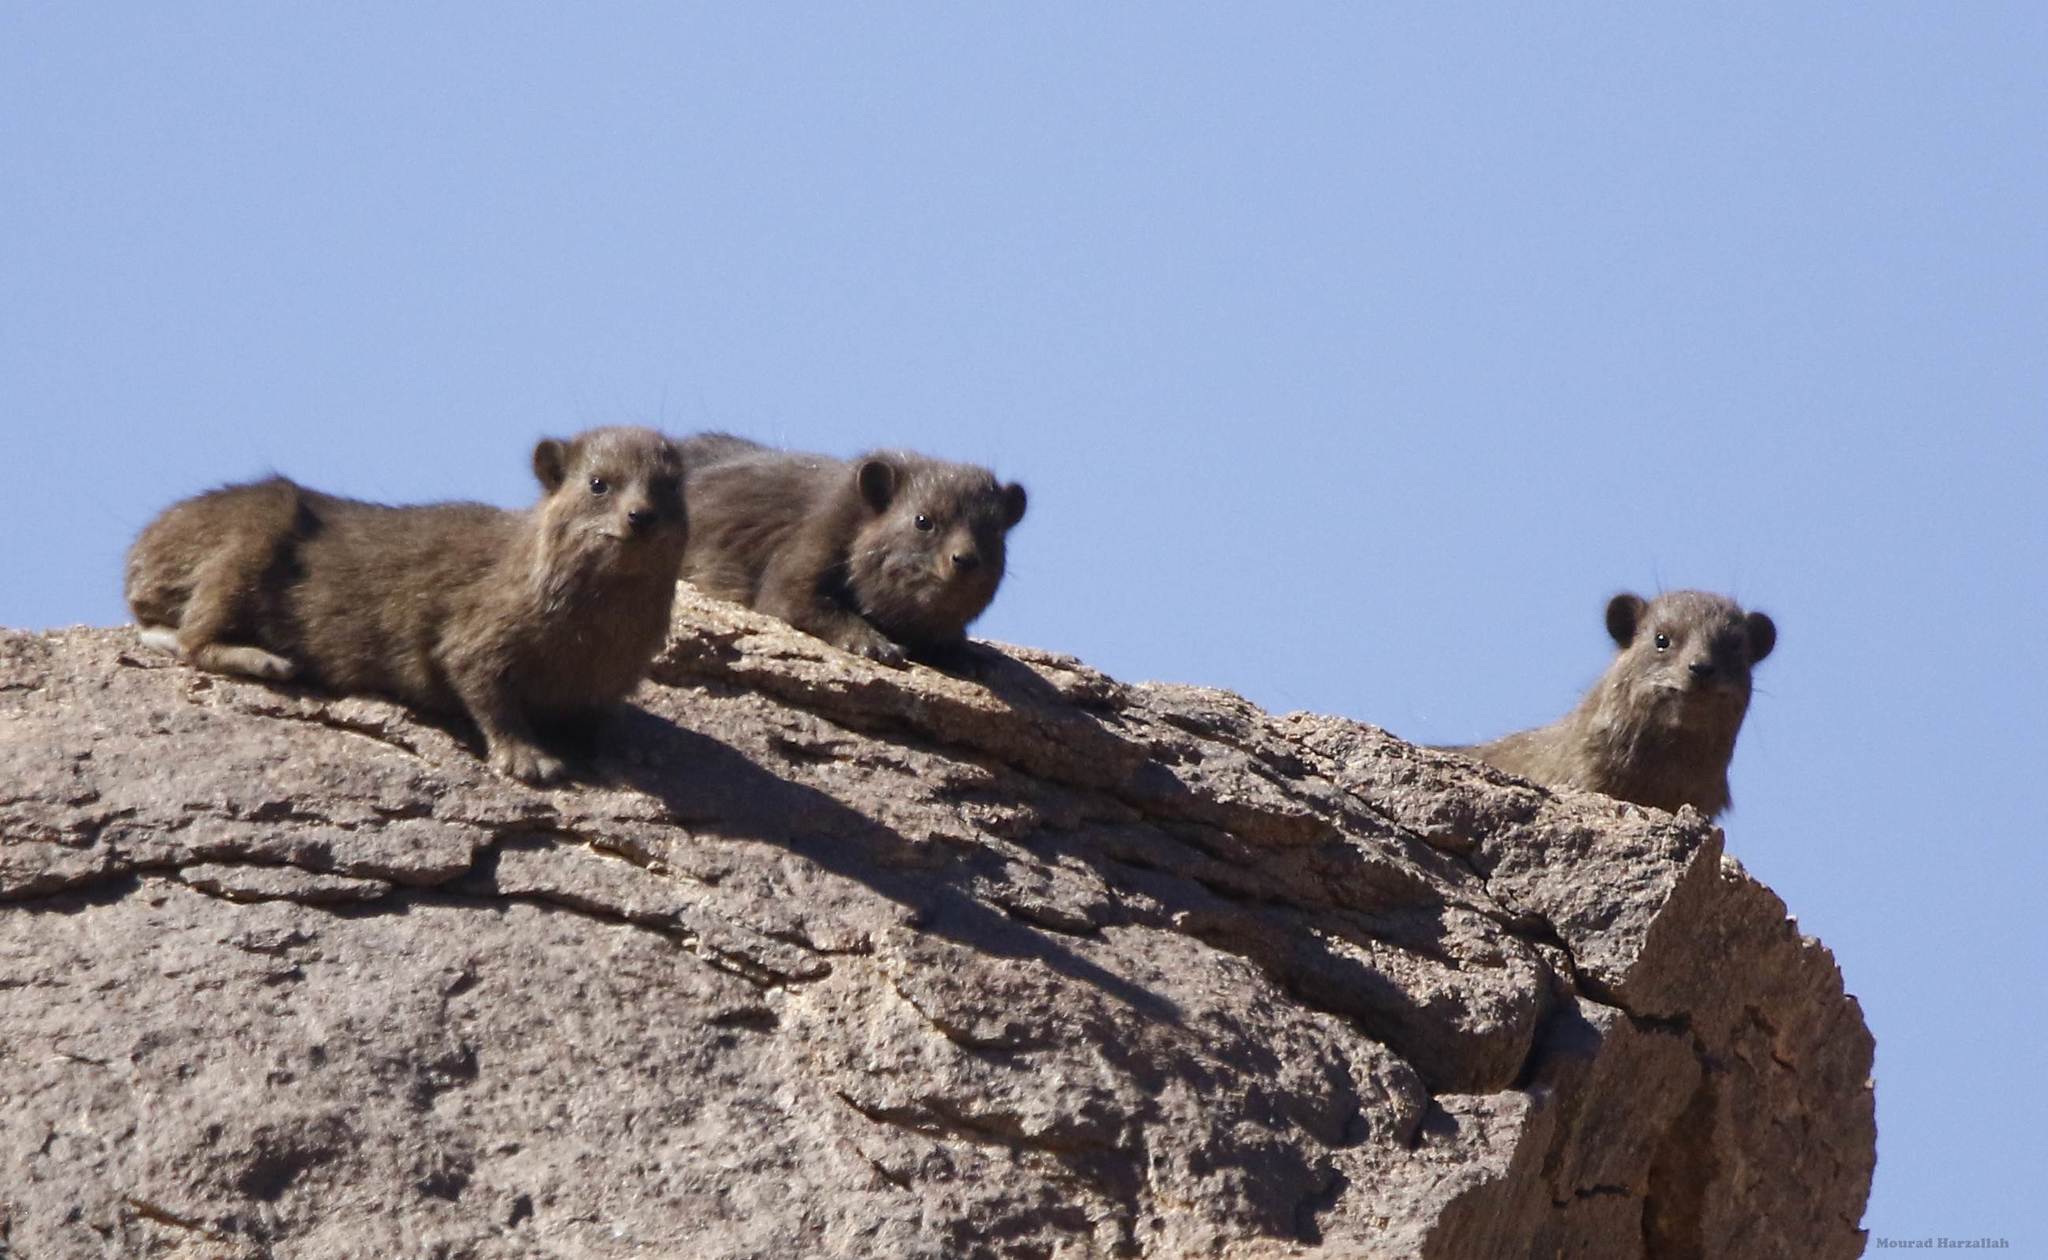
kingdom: Animalia
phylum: Chordata
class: Mammalia
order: Hyracoidea
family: Procaviidae
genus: Procavia
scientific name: Procavia capensis
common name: Rock hyrax
